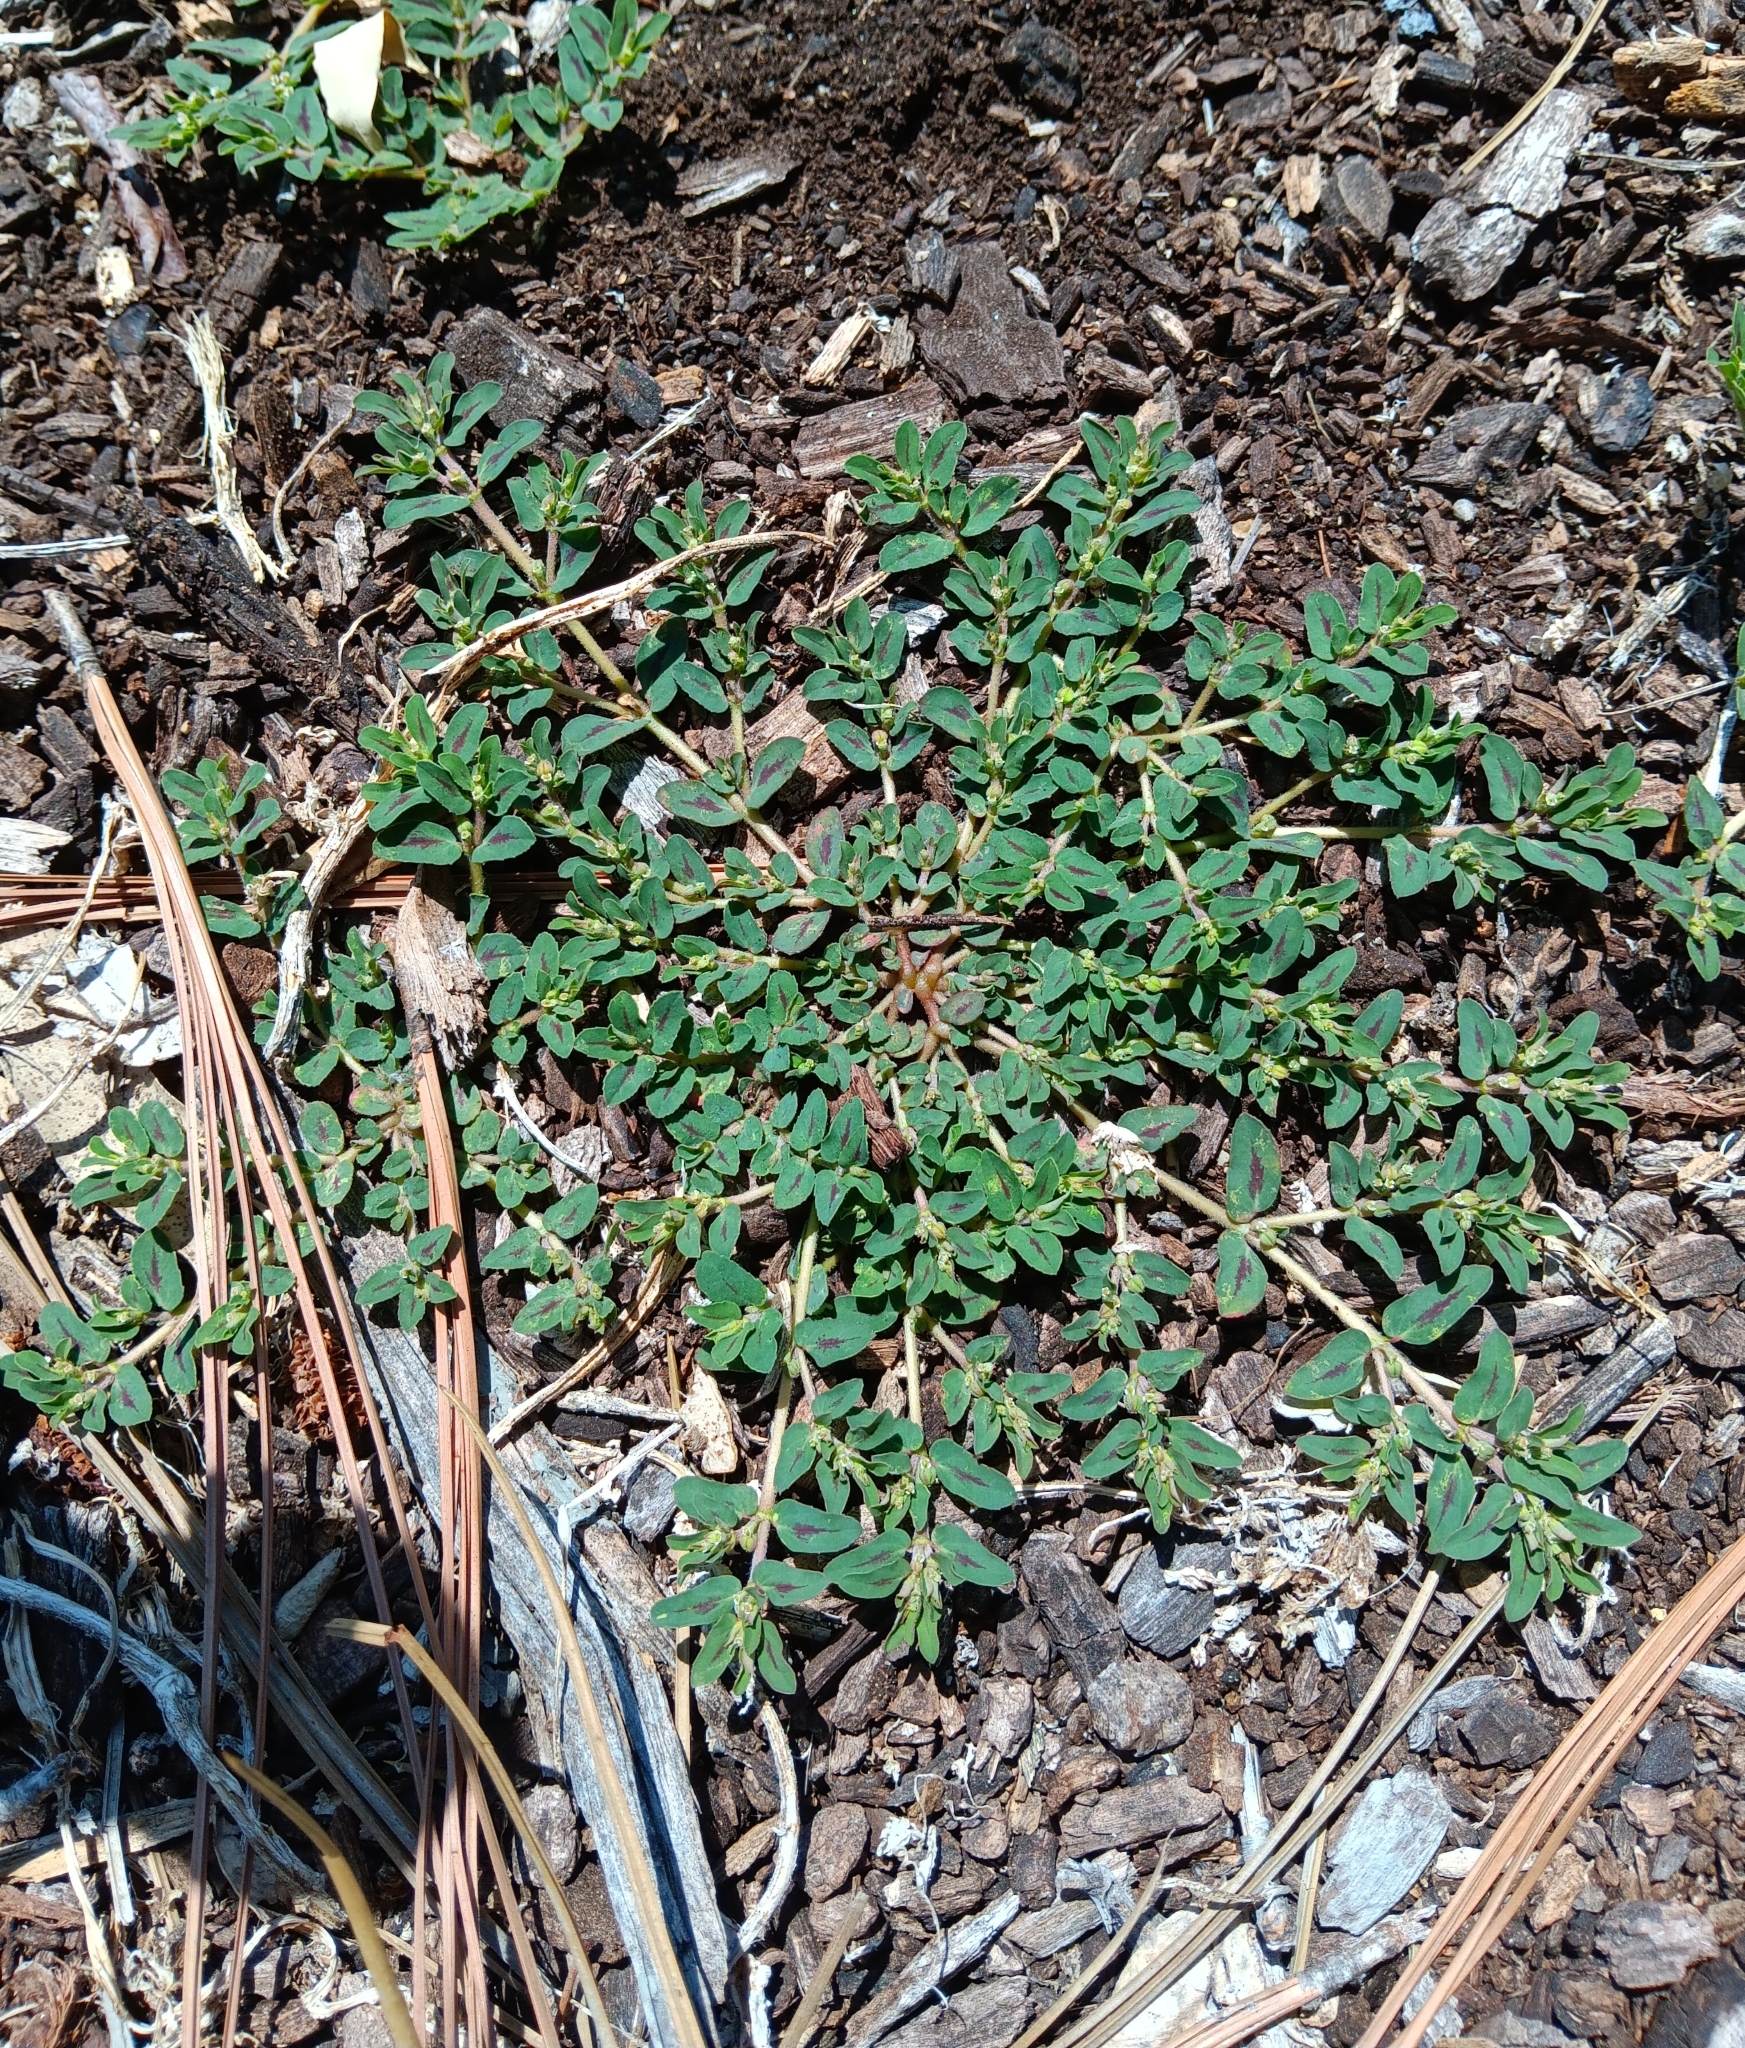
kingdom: Plantae
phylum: Tracheophyta
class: Magnoliopsida
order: Malpighiales
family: Euphorbiaceae
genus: Euphorbia
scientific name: Euphorbia maculata
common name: Spotted spurge
